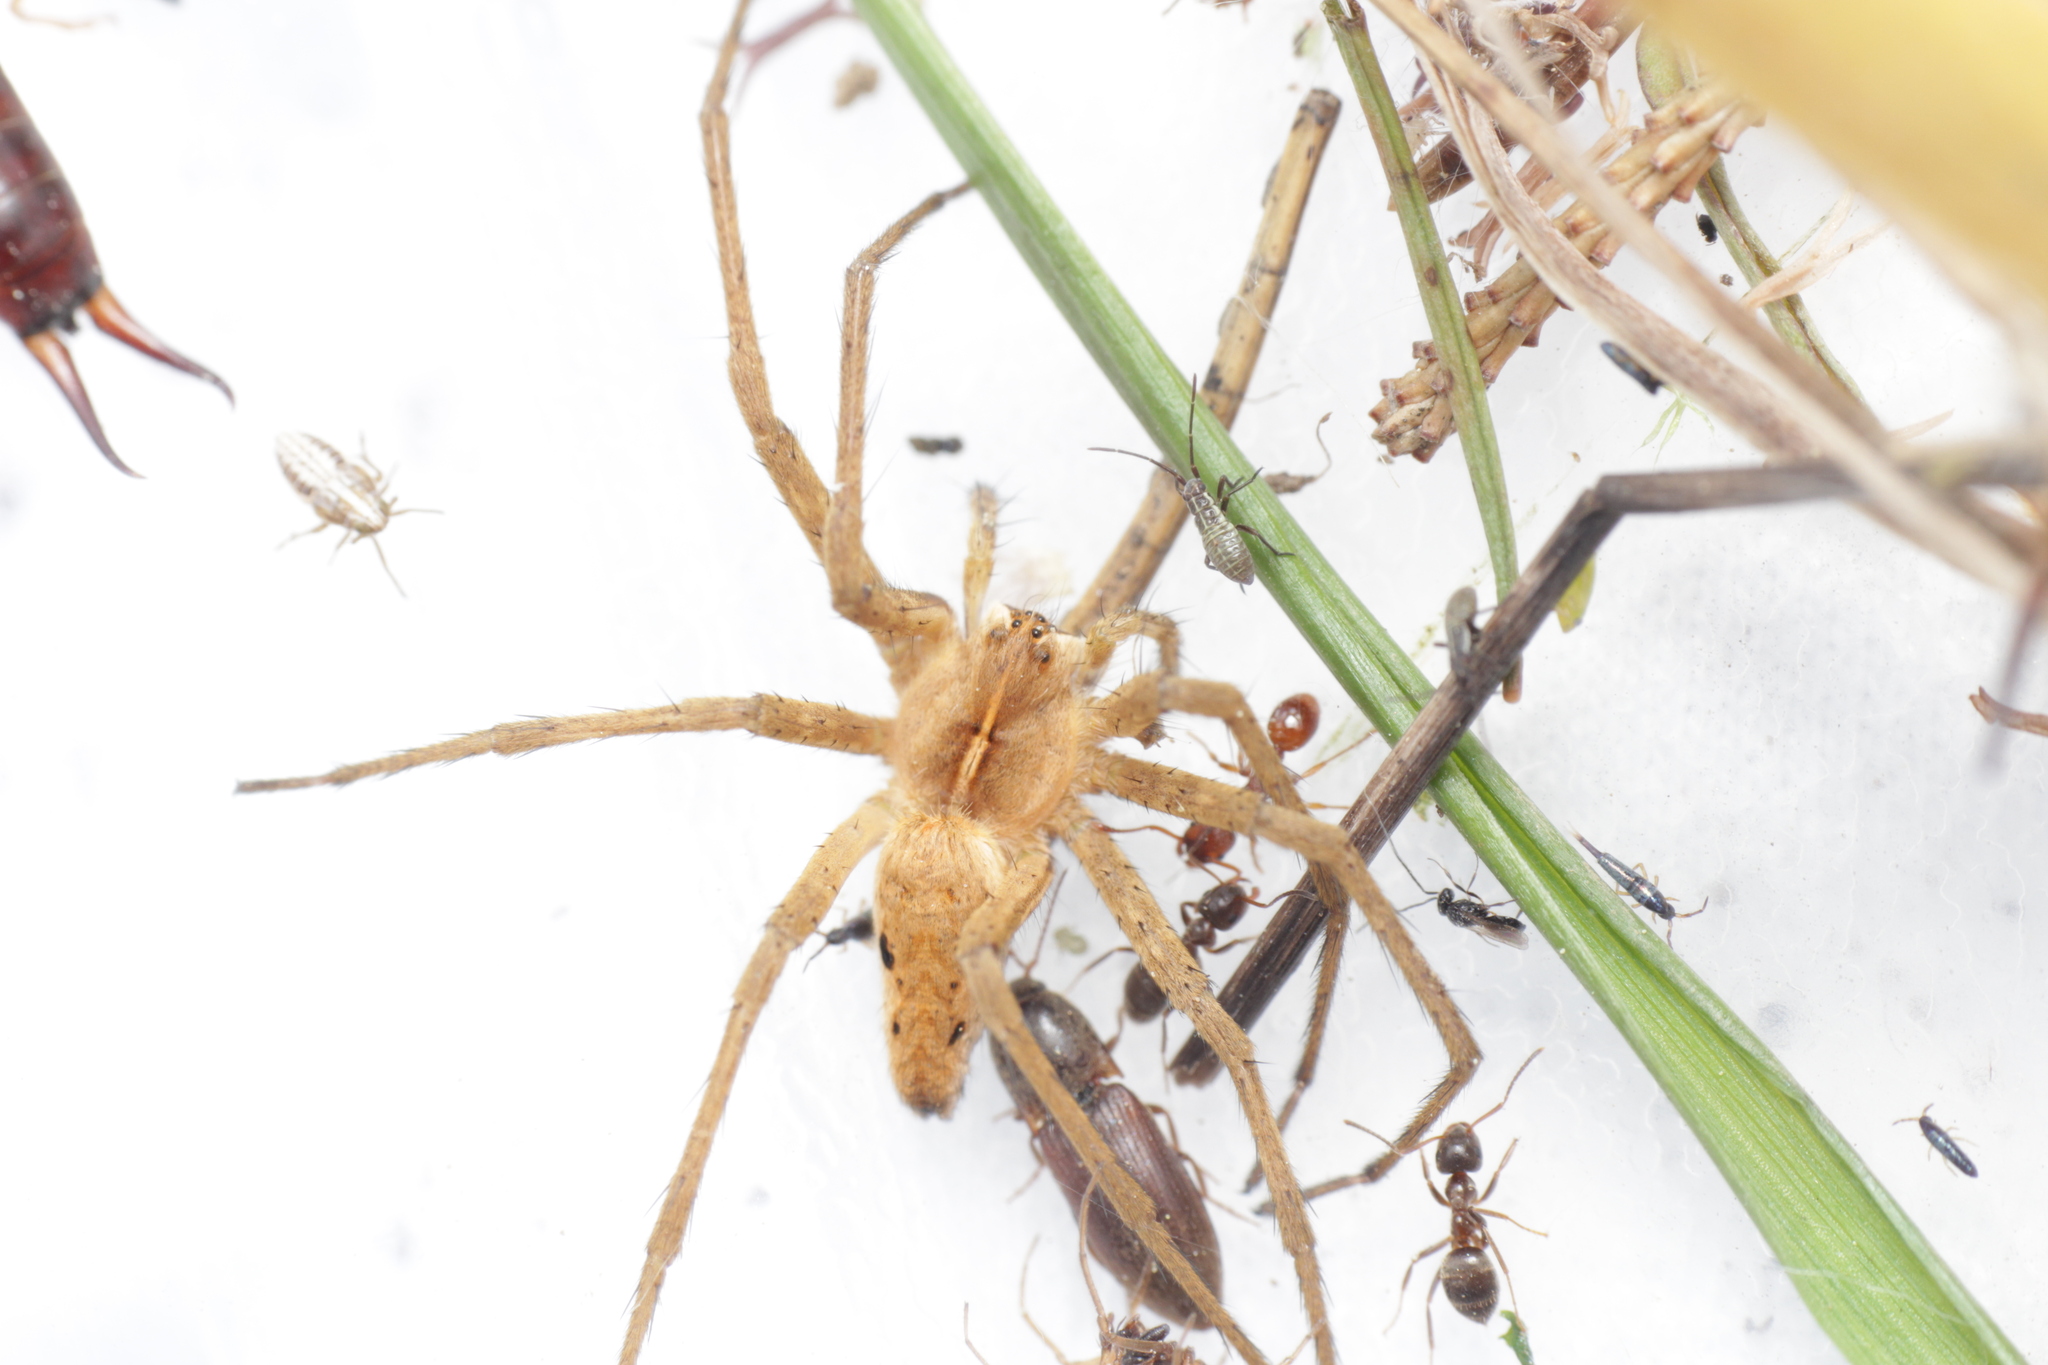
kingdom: Animalia
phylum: Arthropoda
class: Arachnida
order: Araneae
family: Pisauridae
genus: Pisaura
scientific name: Pisaura mirabilis
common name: Tent spider
